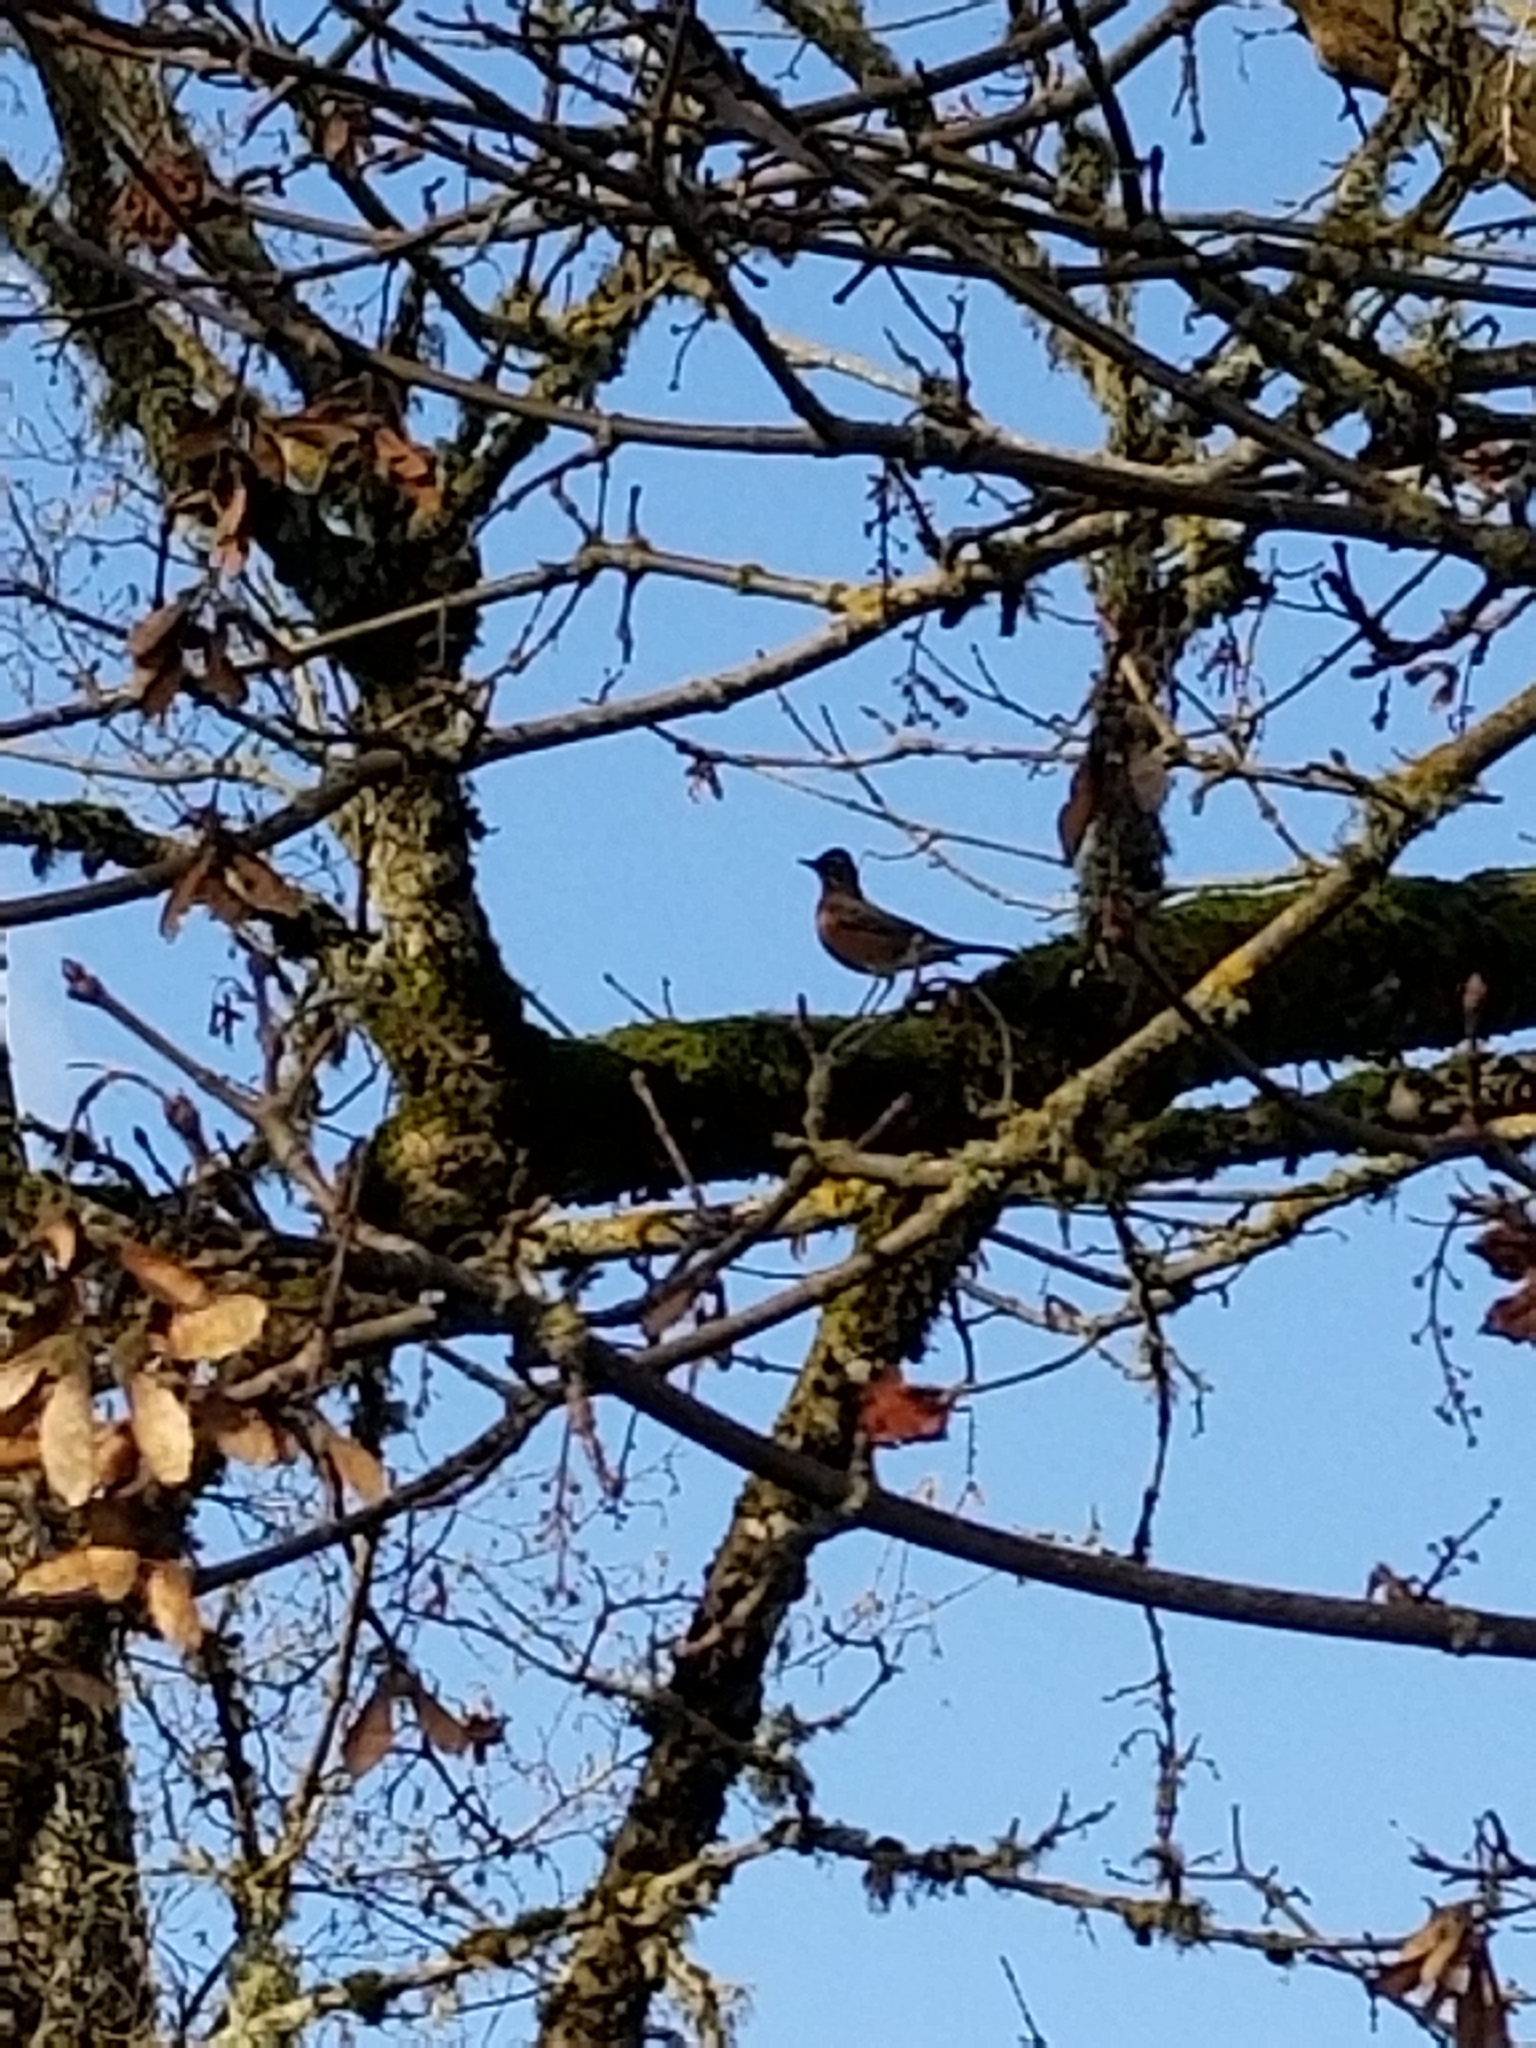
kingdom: Animalia
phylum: Chordata
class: Aves
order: Passeriformes
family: Turdidae
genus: Turdus
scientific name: Turdus migratorius
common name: American robin
